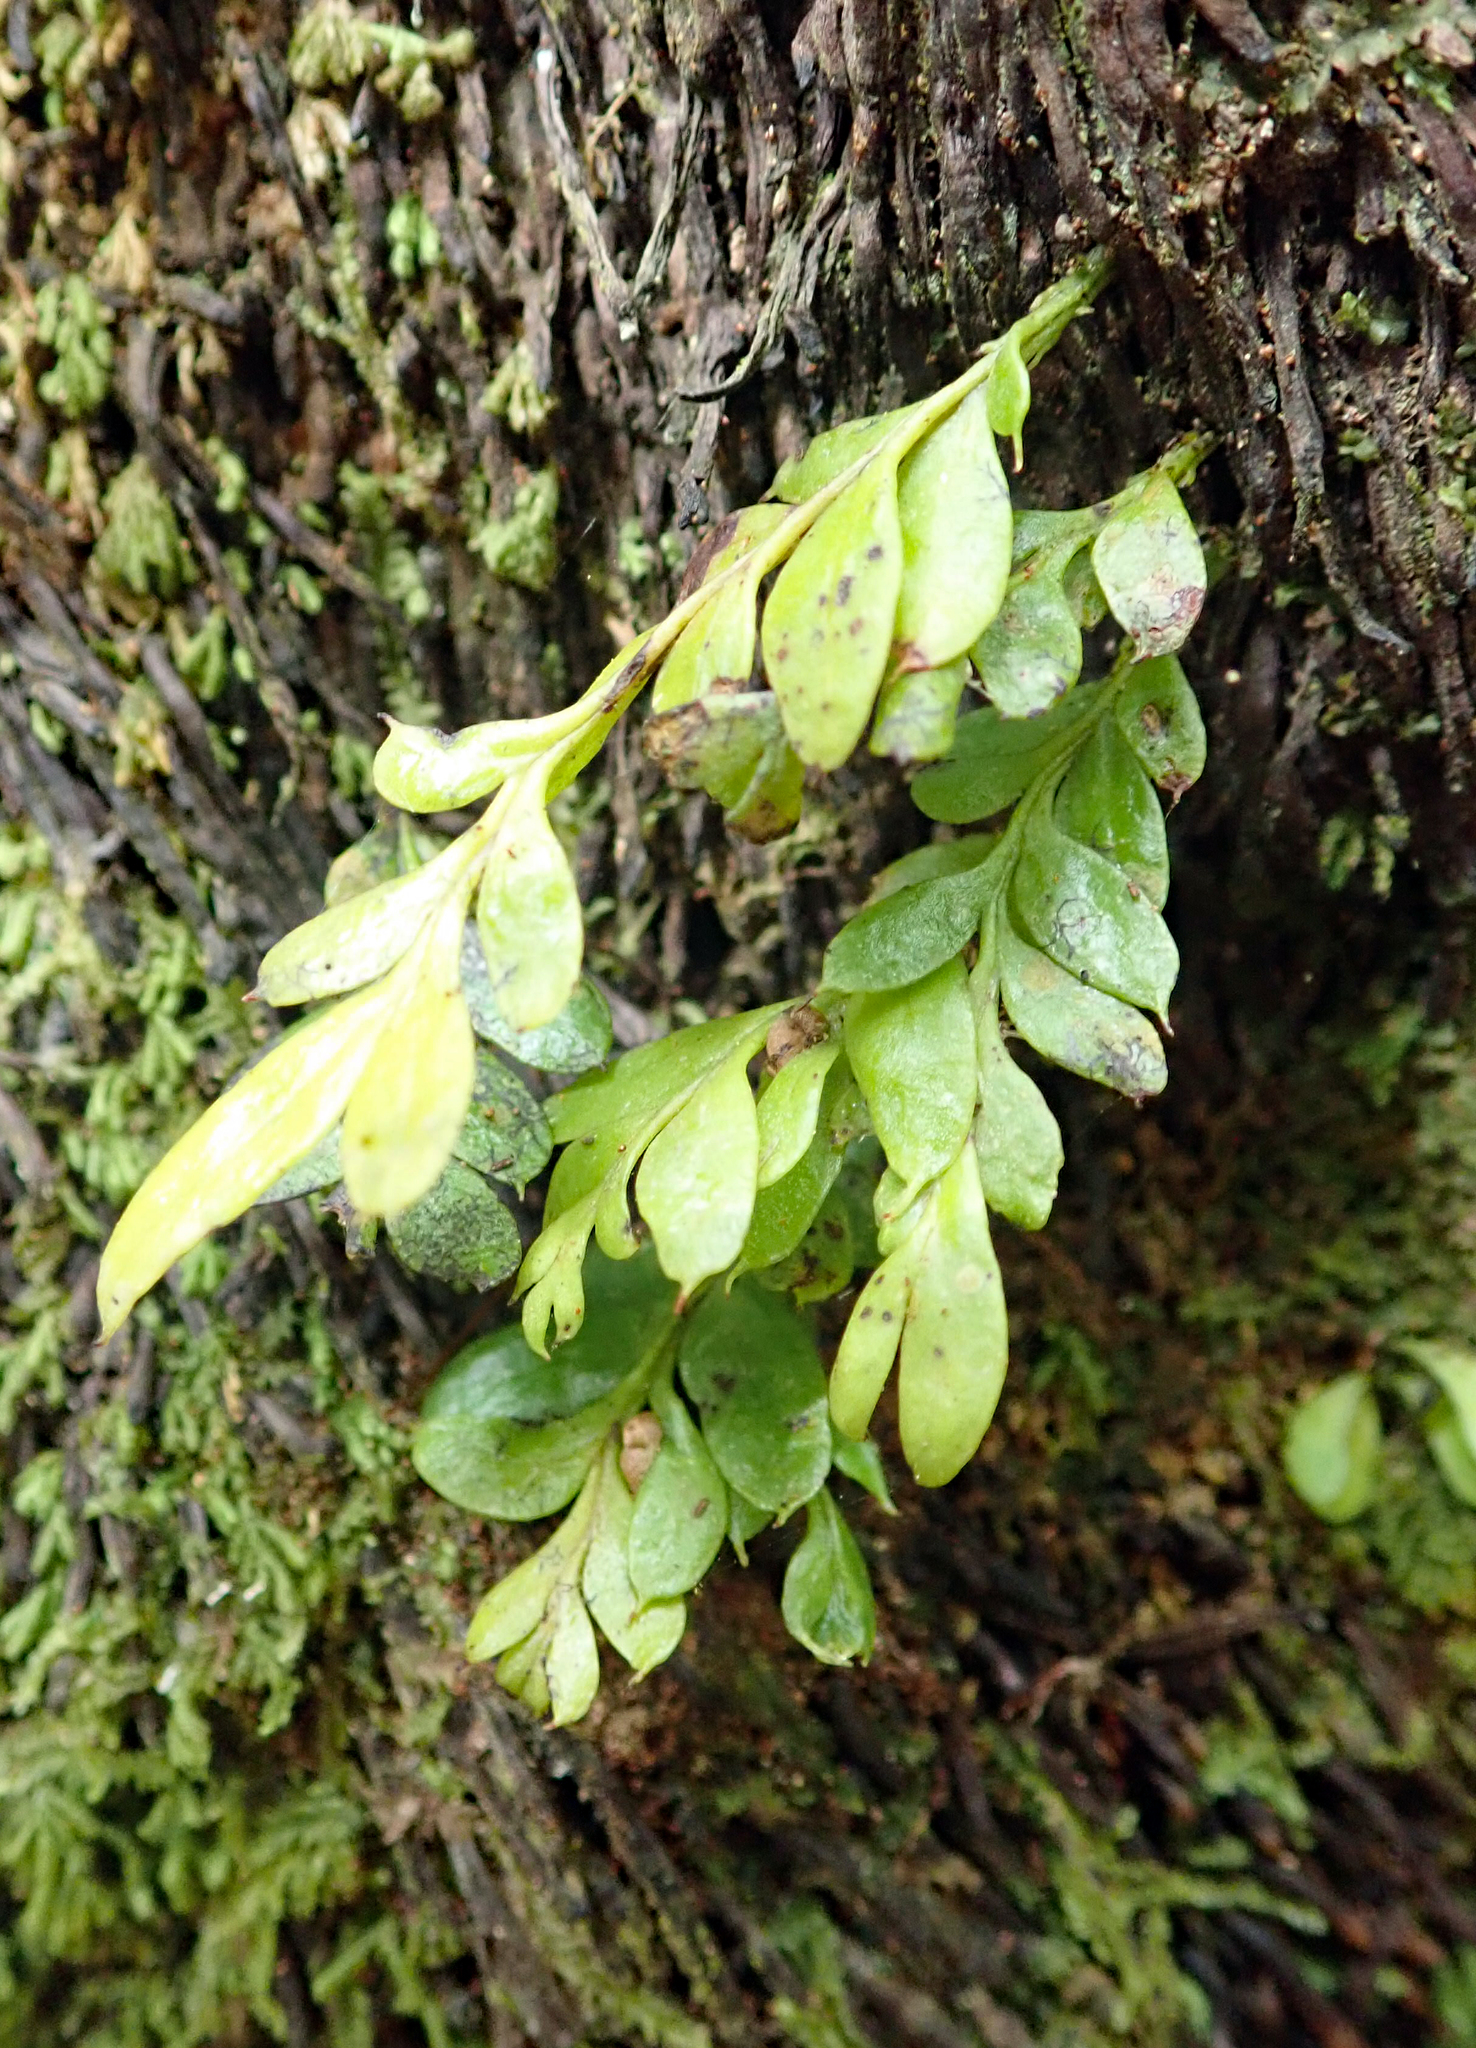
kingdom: Plantae
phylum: Tracheophyta
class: Polypodiopsida
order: Psilotales
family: Psilotaceae
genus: Tmesipteris
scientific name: Tmesipteris lanceolata
